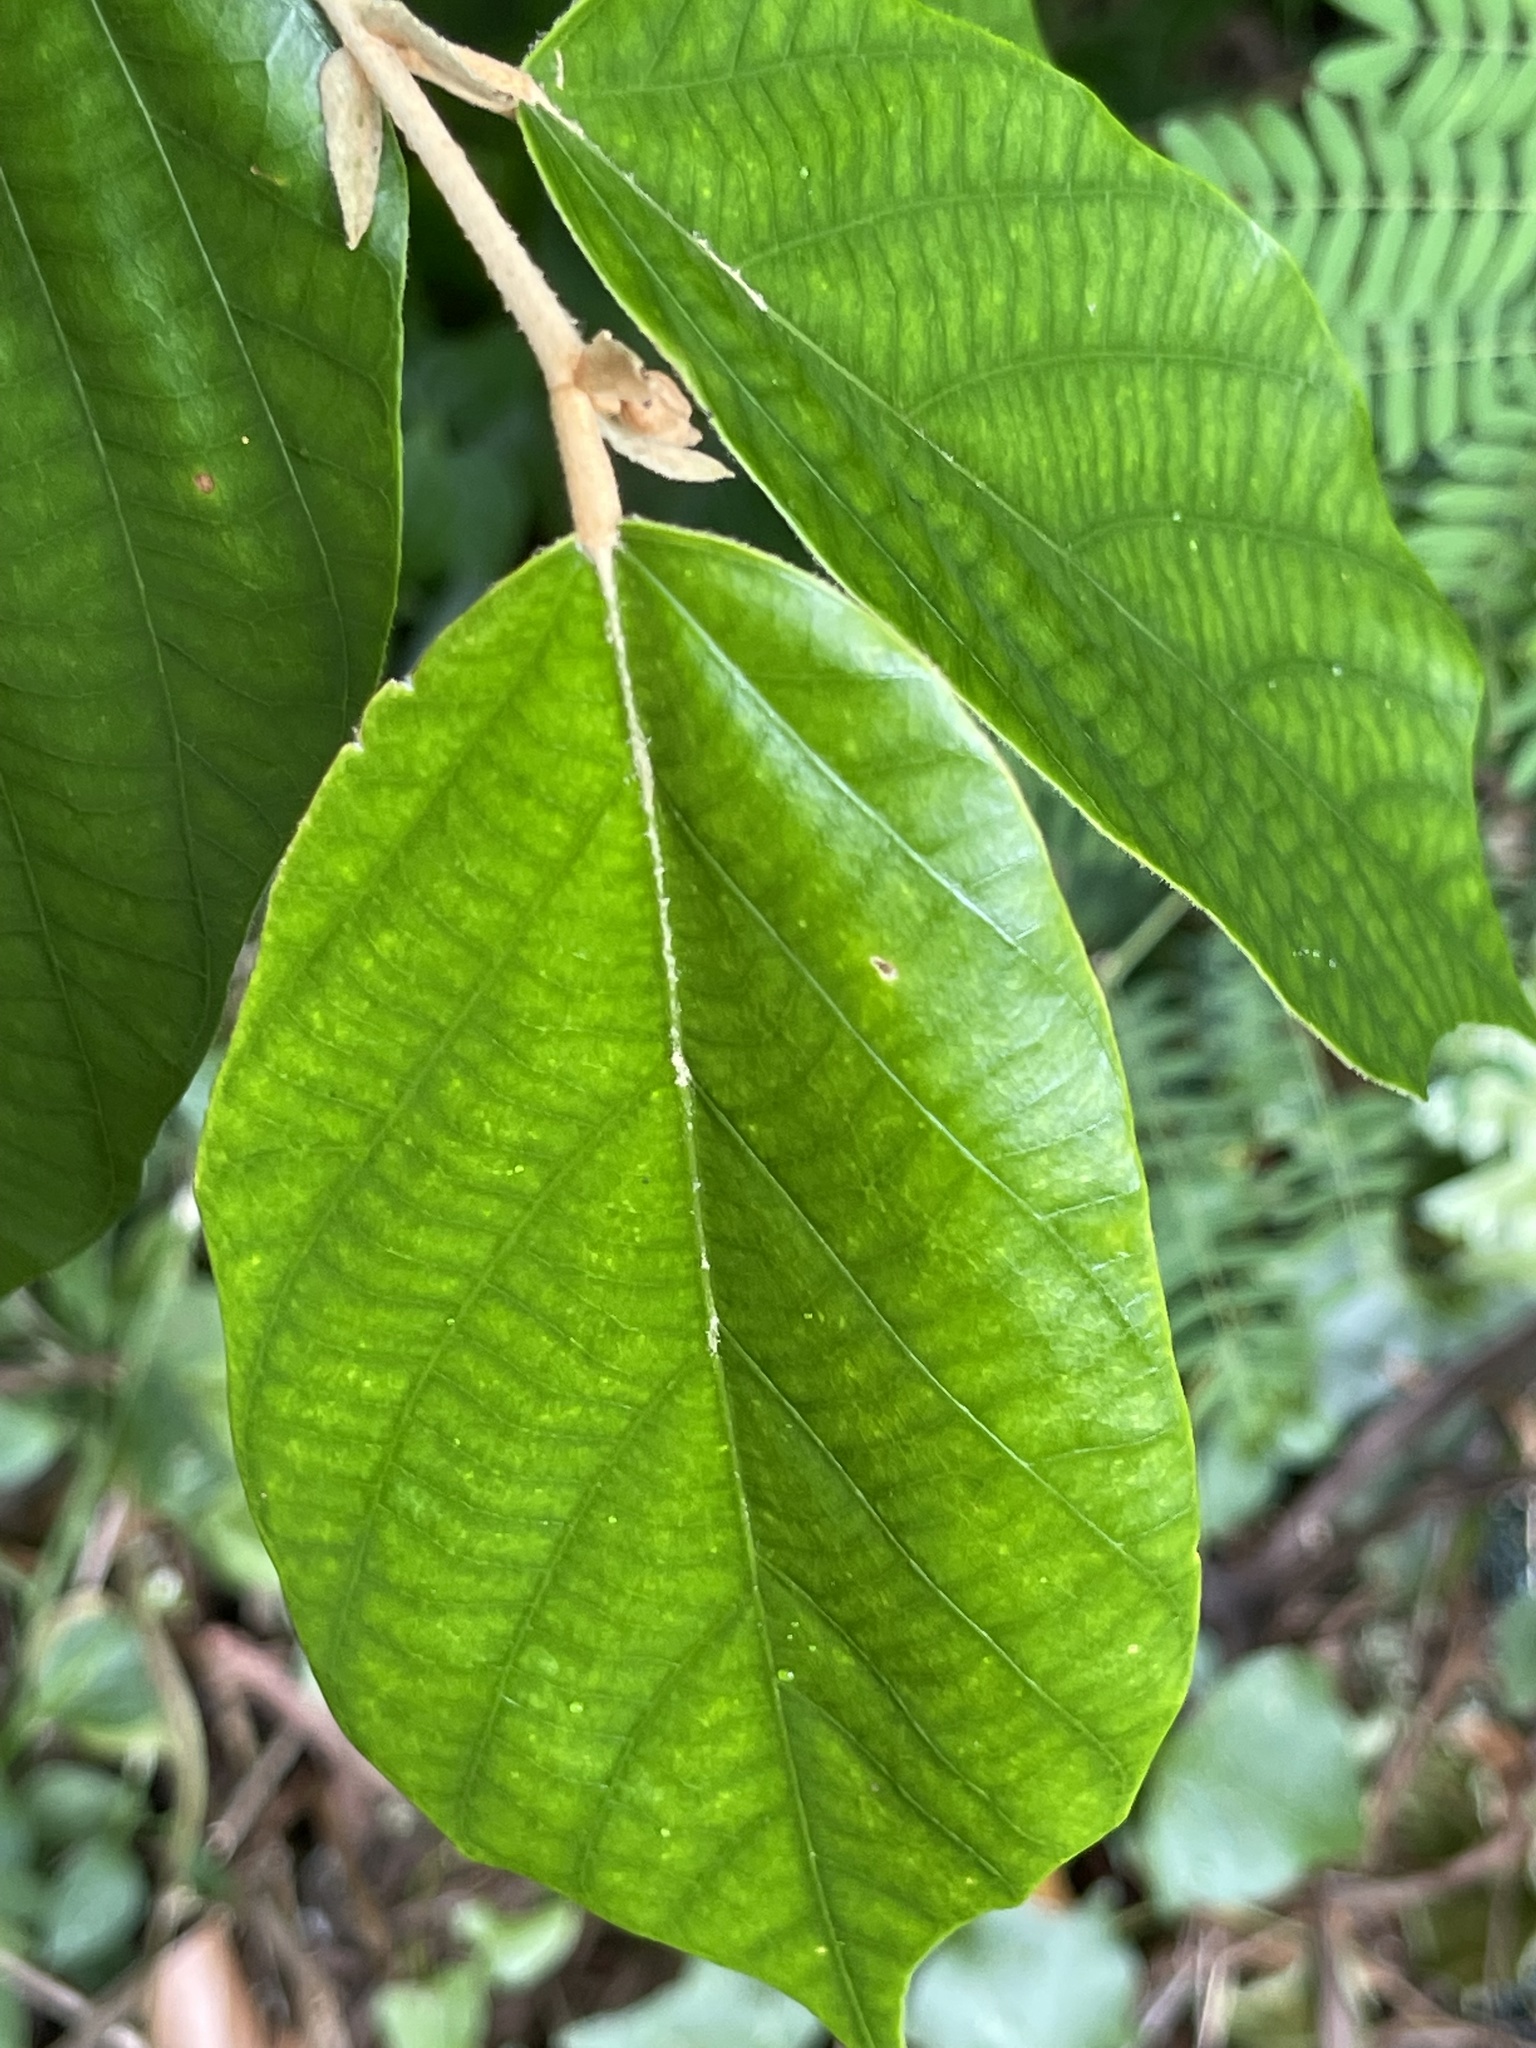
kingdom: Plantae
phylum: Tracheophyta
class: Magnoliopsida
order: Malvales
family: Malvaceae
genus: Pterospermum
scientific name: Pterospermum heterophyllum
